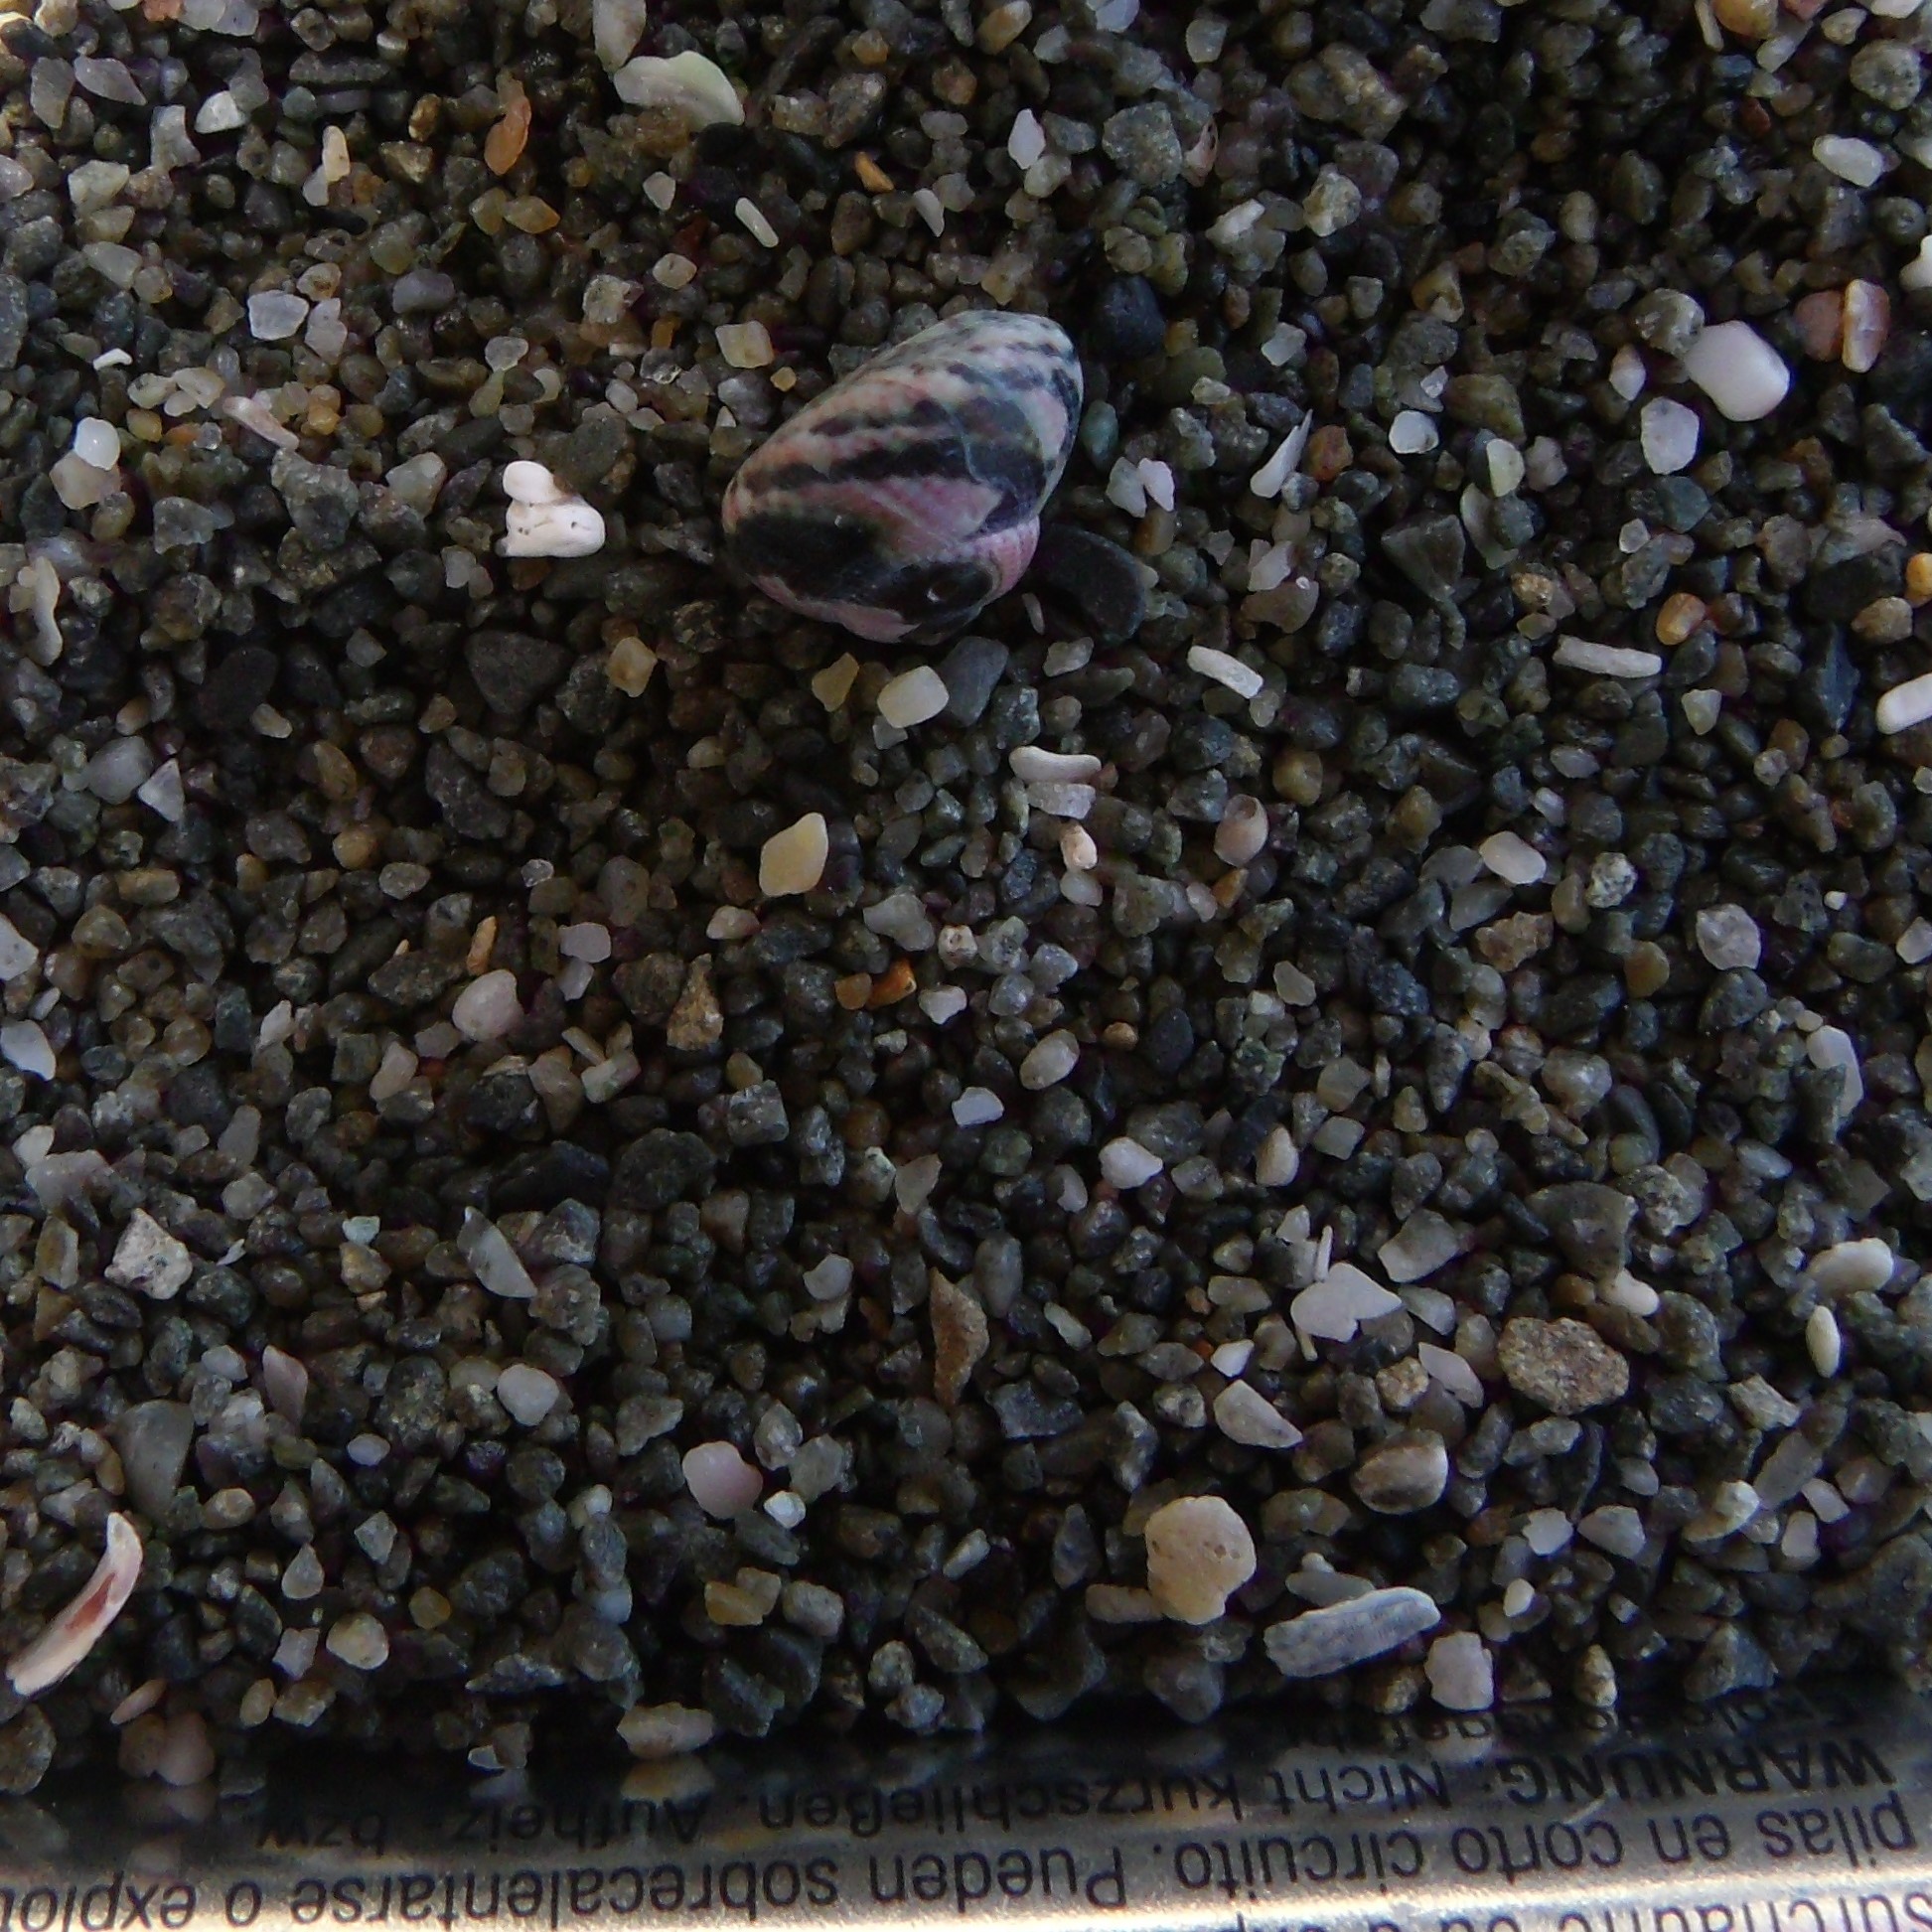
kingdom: Animalia
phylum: Mollusca
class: Gastropoda
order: Trochida
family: Trochidae
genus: Micrelenchus
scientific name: Micrelenchus tessellatus
